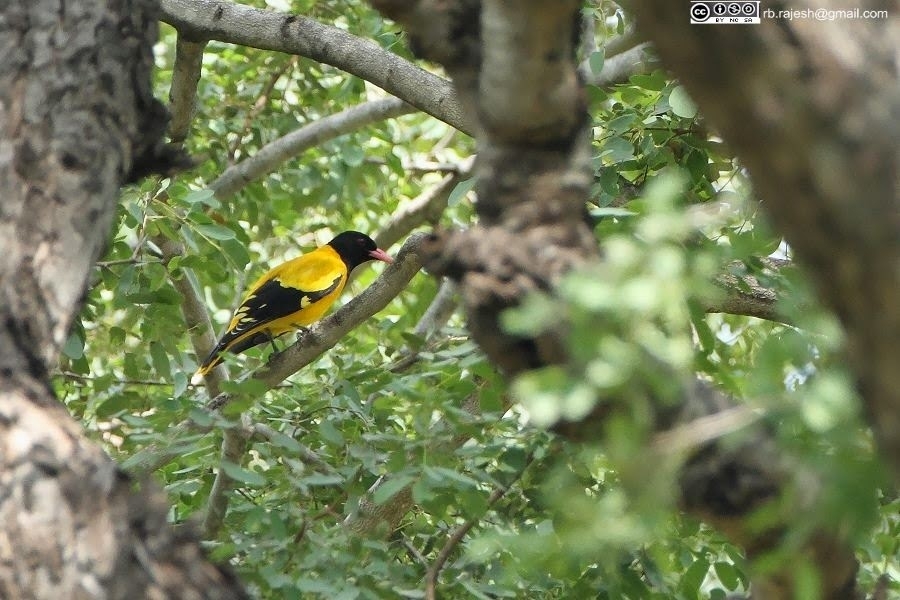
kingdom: Animalia
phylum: Chordata
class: Aves
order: Passeriformes
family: Oriolidae
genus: Oriolus
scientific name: Oriolus xanthornus
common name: Black-hooded oriole
